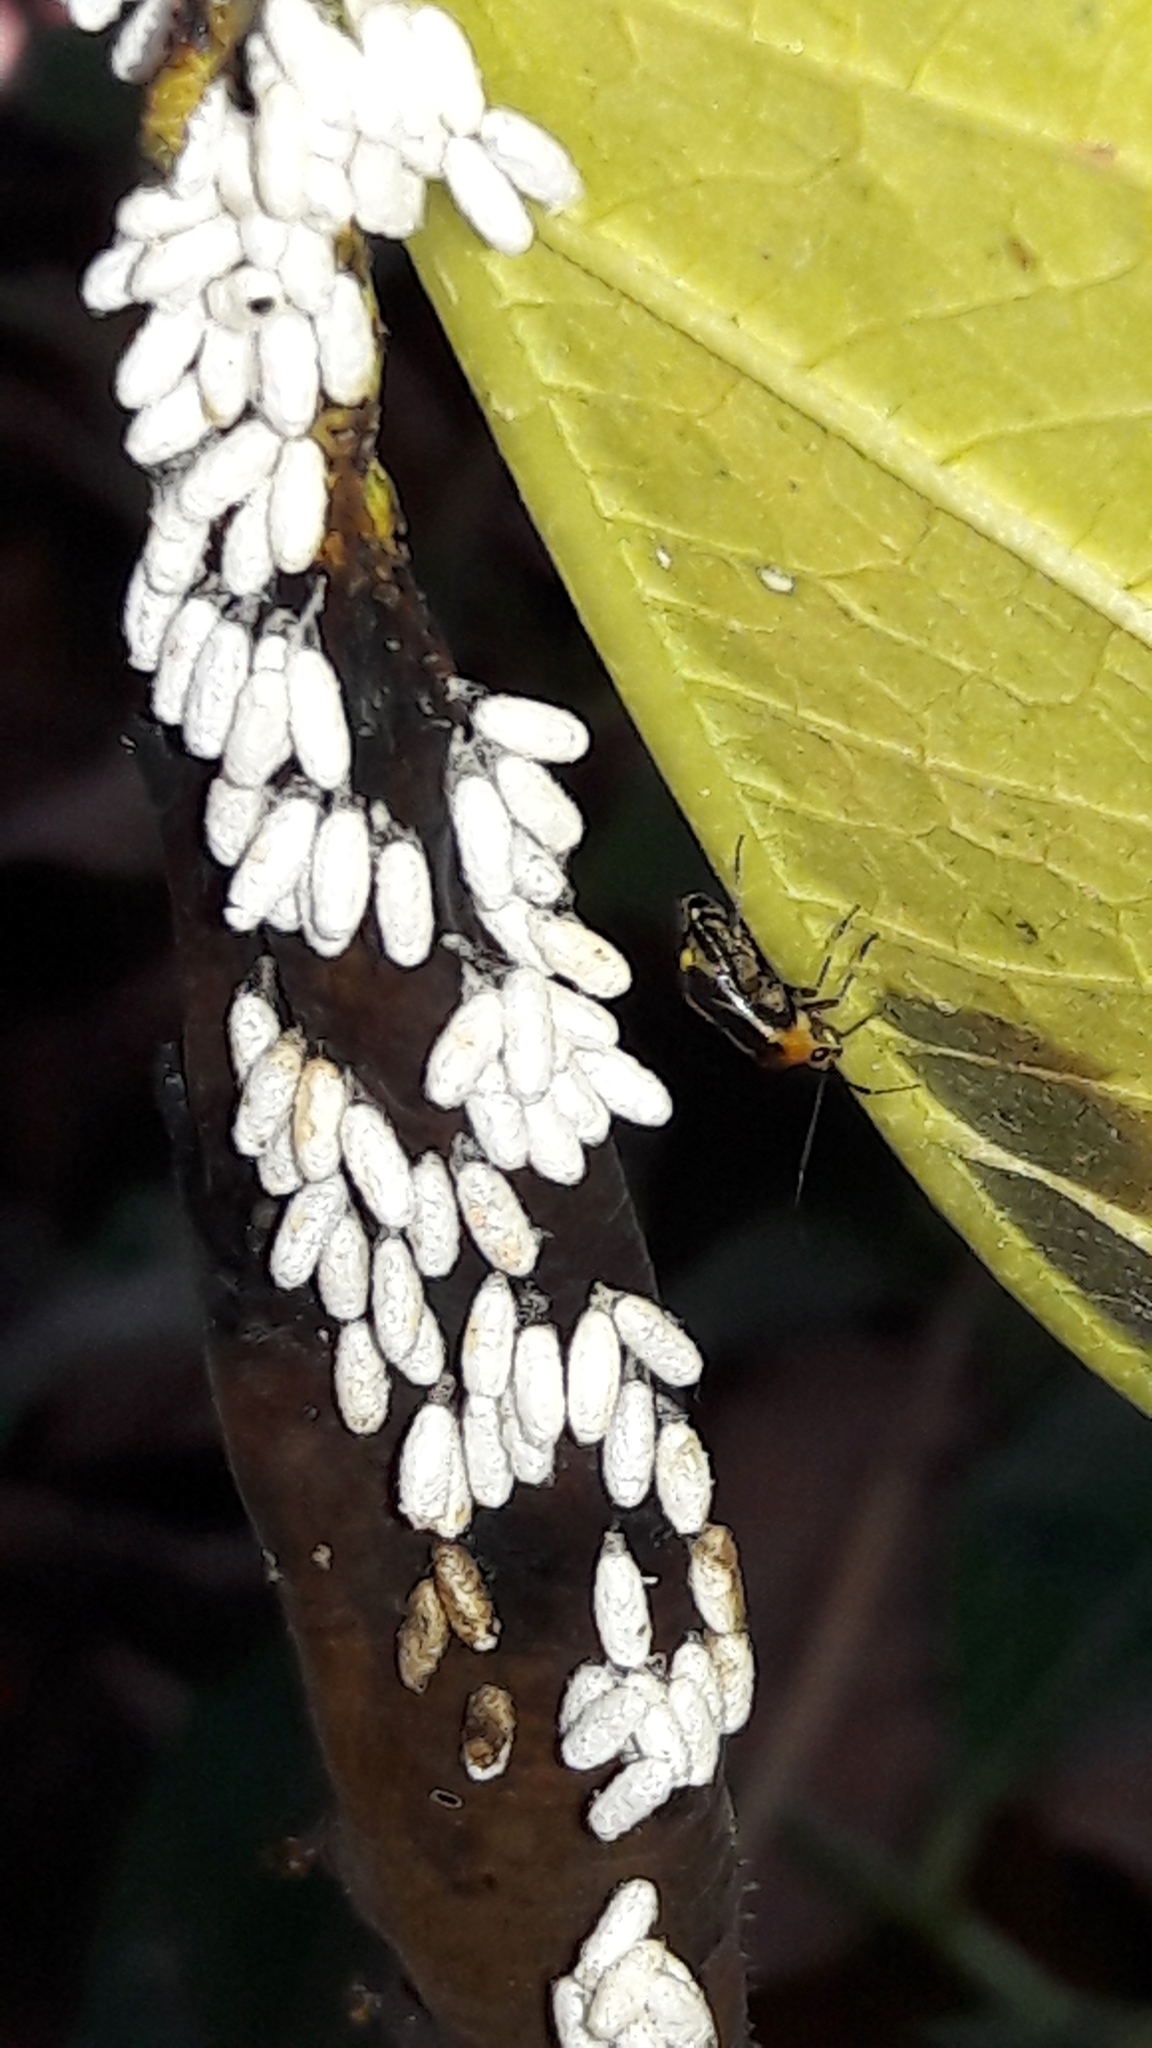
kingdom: Animalia
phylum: Arthropoda
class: Insecta
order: Hemiptera
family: Miridae
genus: Horciasinus
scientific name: Horciasinus signoreti
